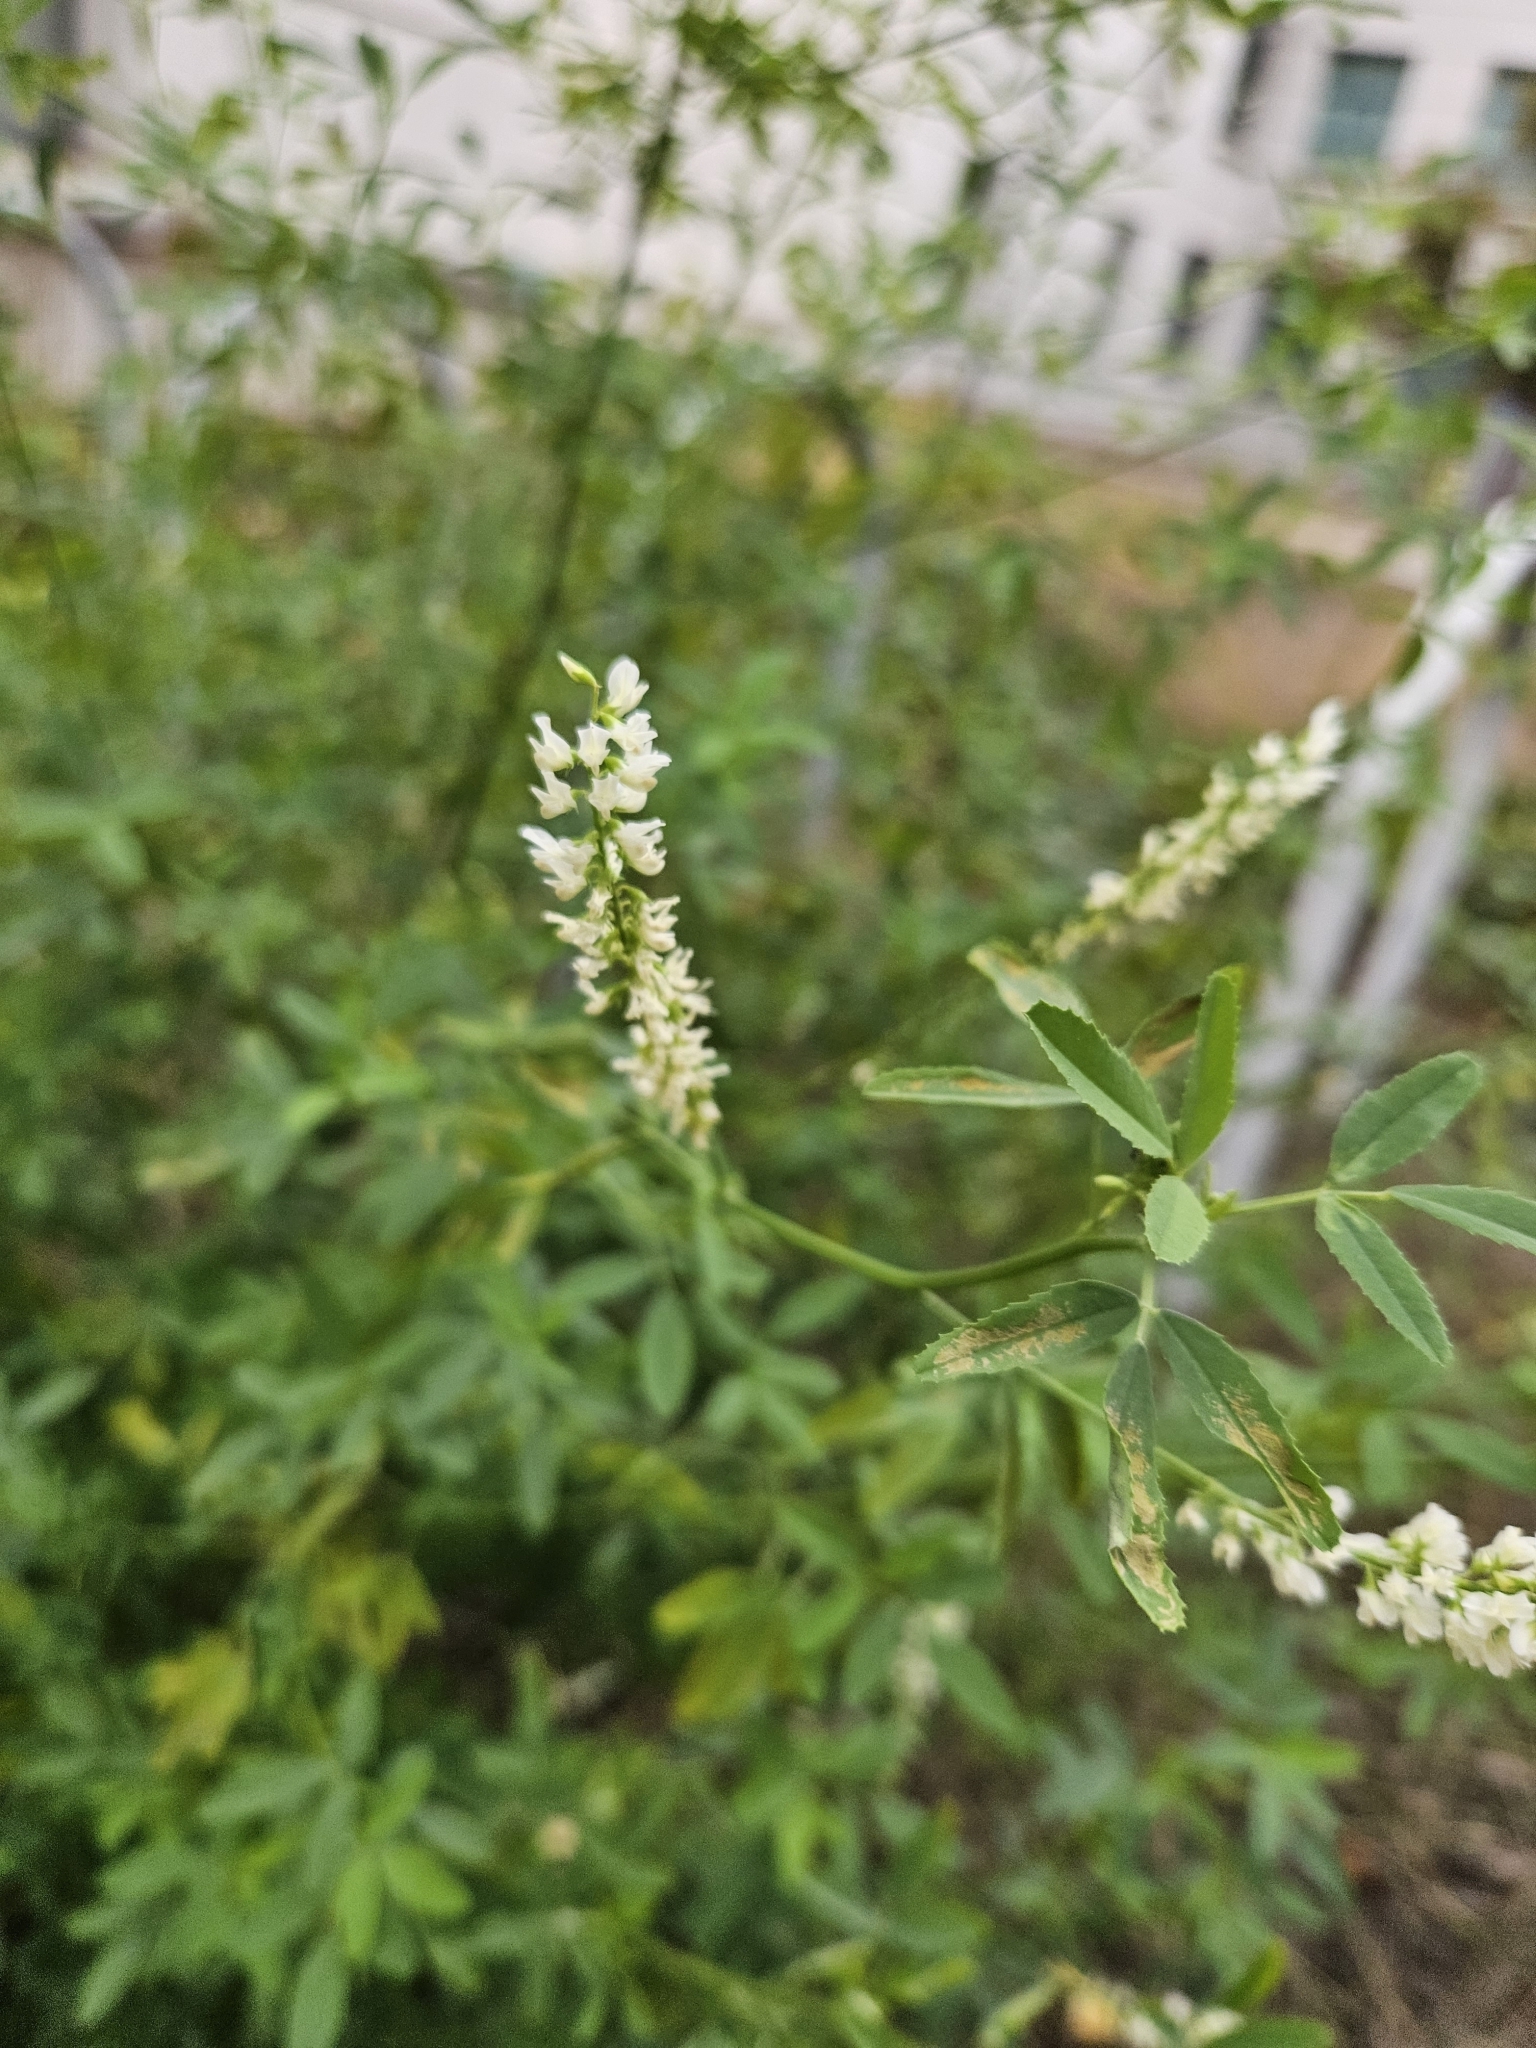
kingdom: Plantae
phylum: Tracheophyta
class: Magnoliopsida
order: Fabales
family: Fabaceae
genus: Melilotus
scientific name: Melilotus albus
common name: White melilot
